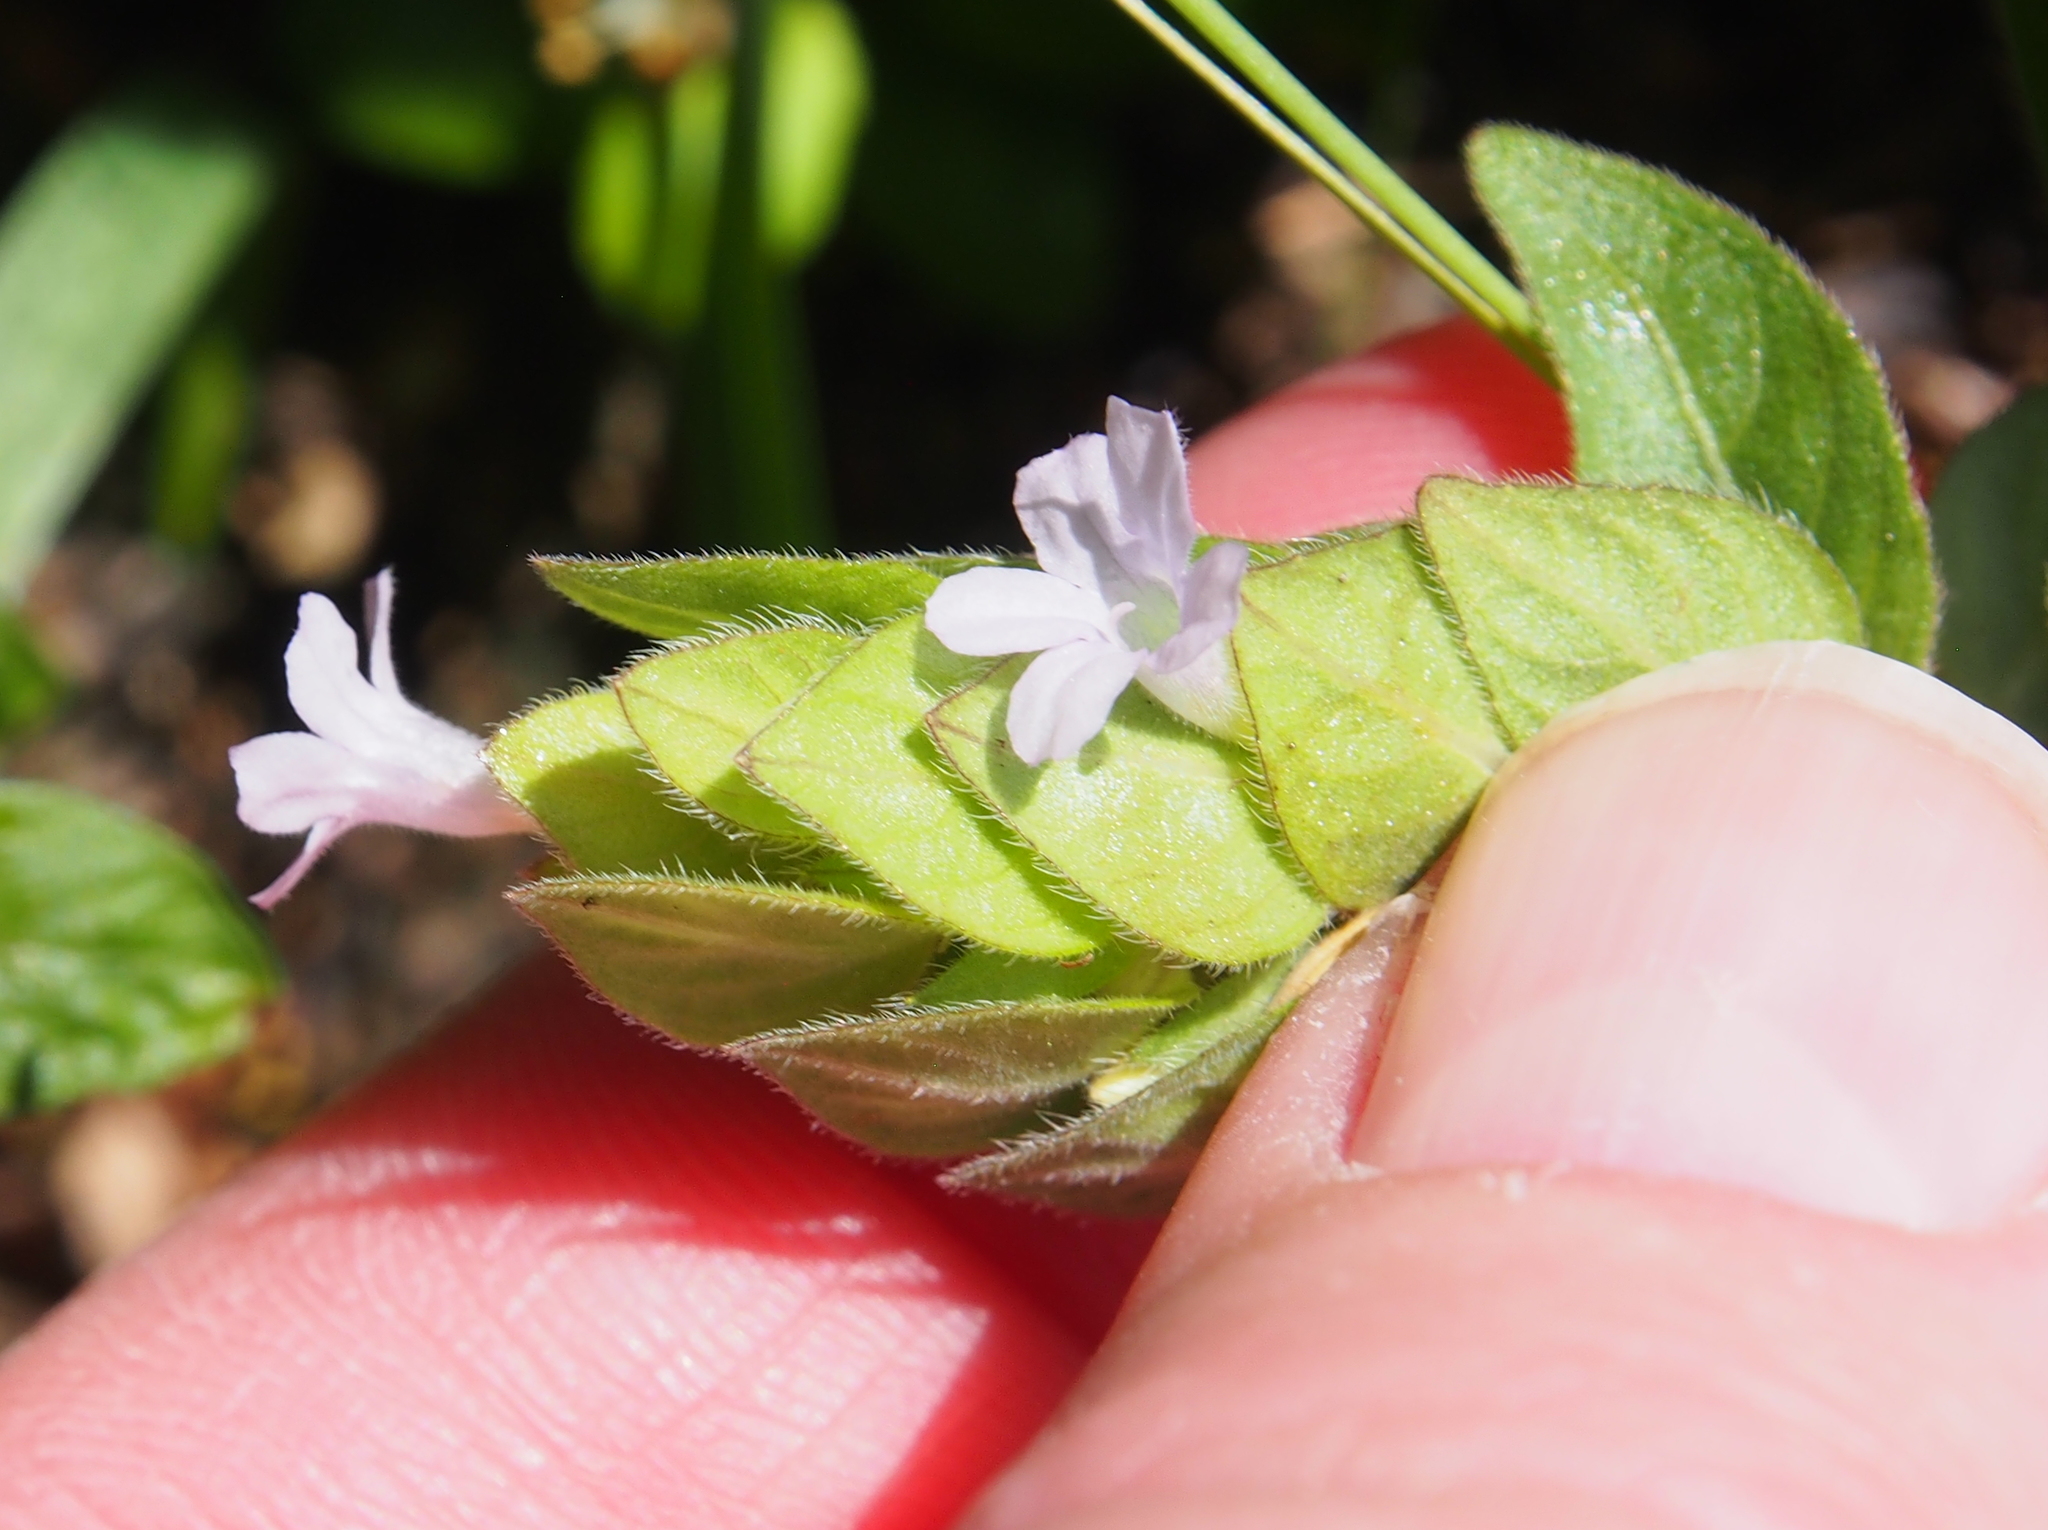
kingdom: Plantae
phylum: Tracheophyta
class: Magnoliopsida
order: Lamiales
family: Acanthaceae
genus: Ruellia
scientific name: Ruellia blechum
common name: Browne's blechum
